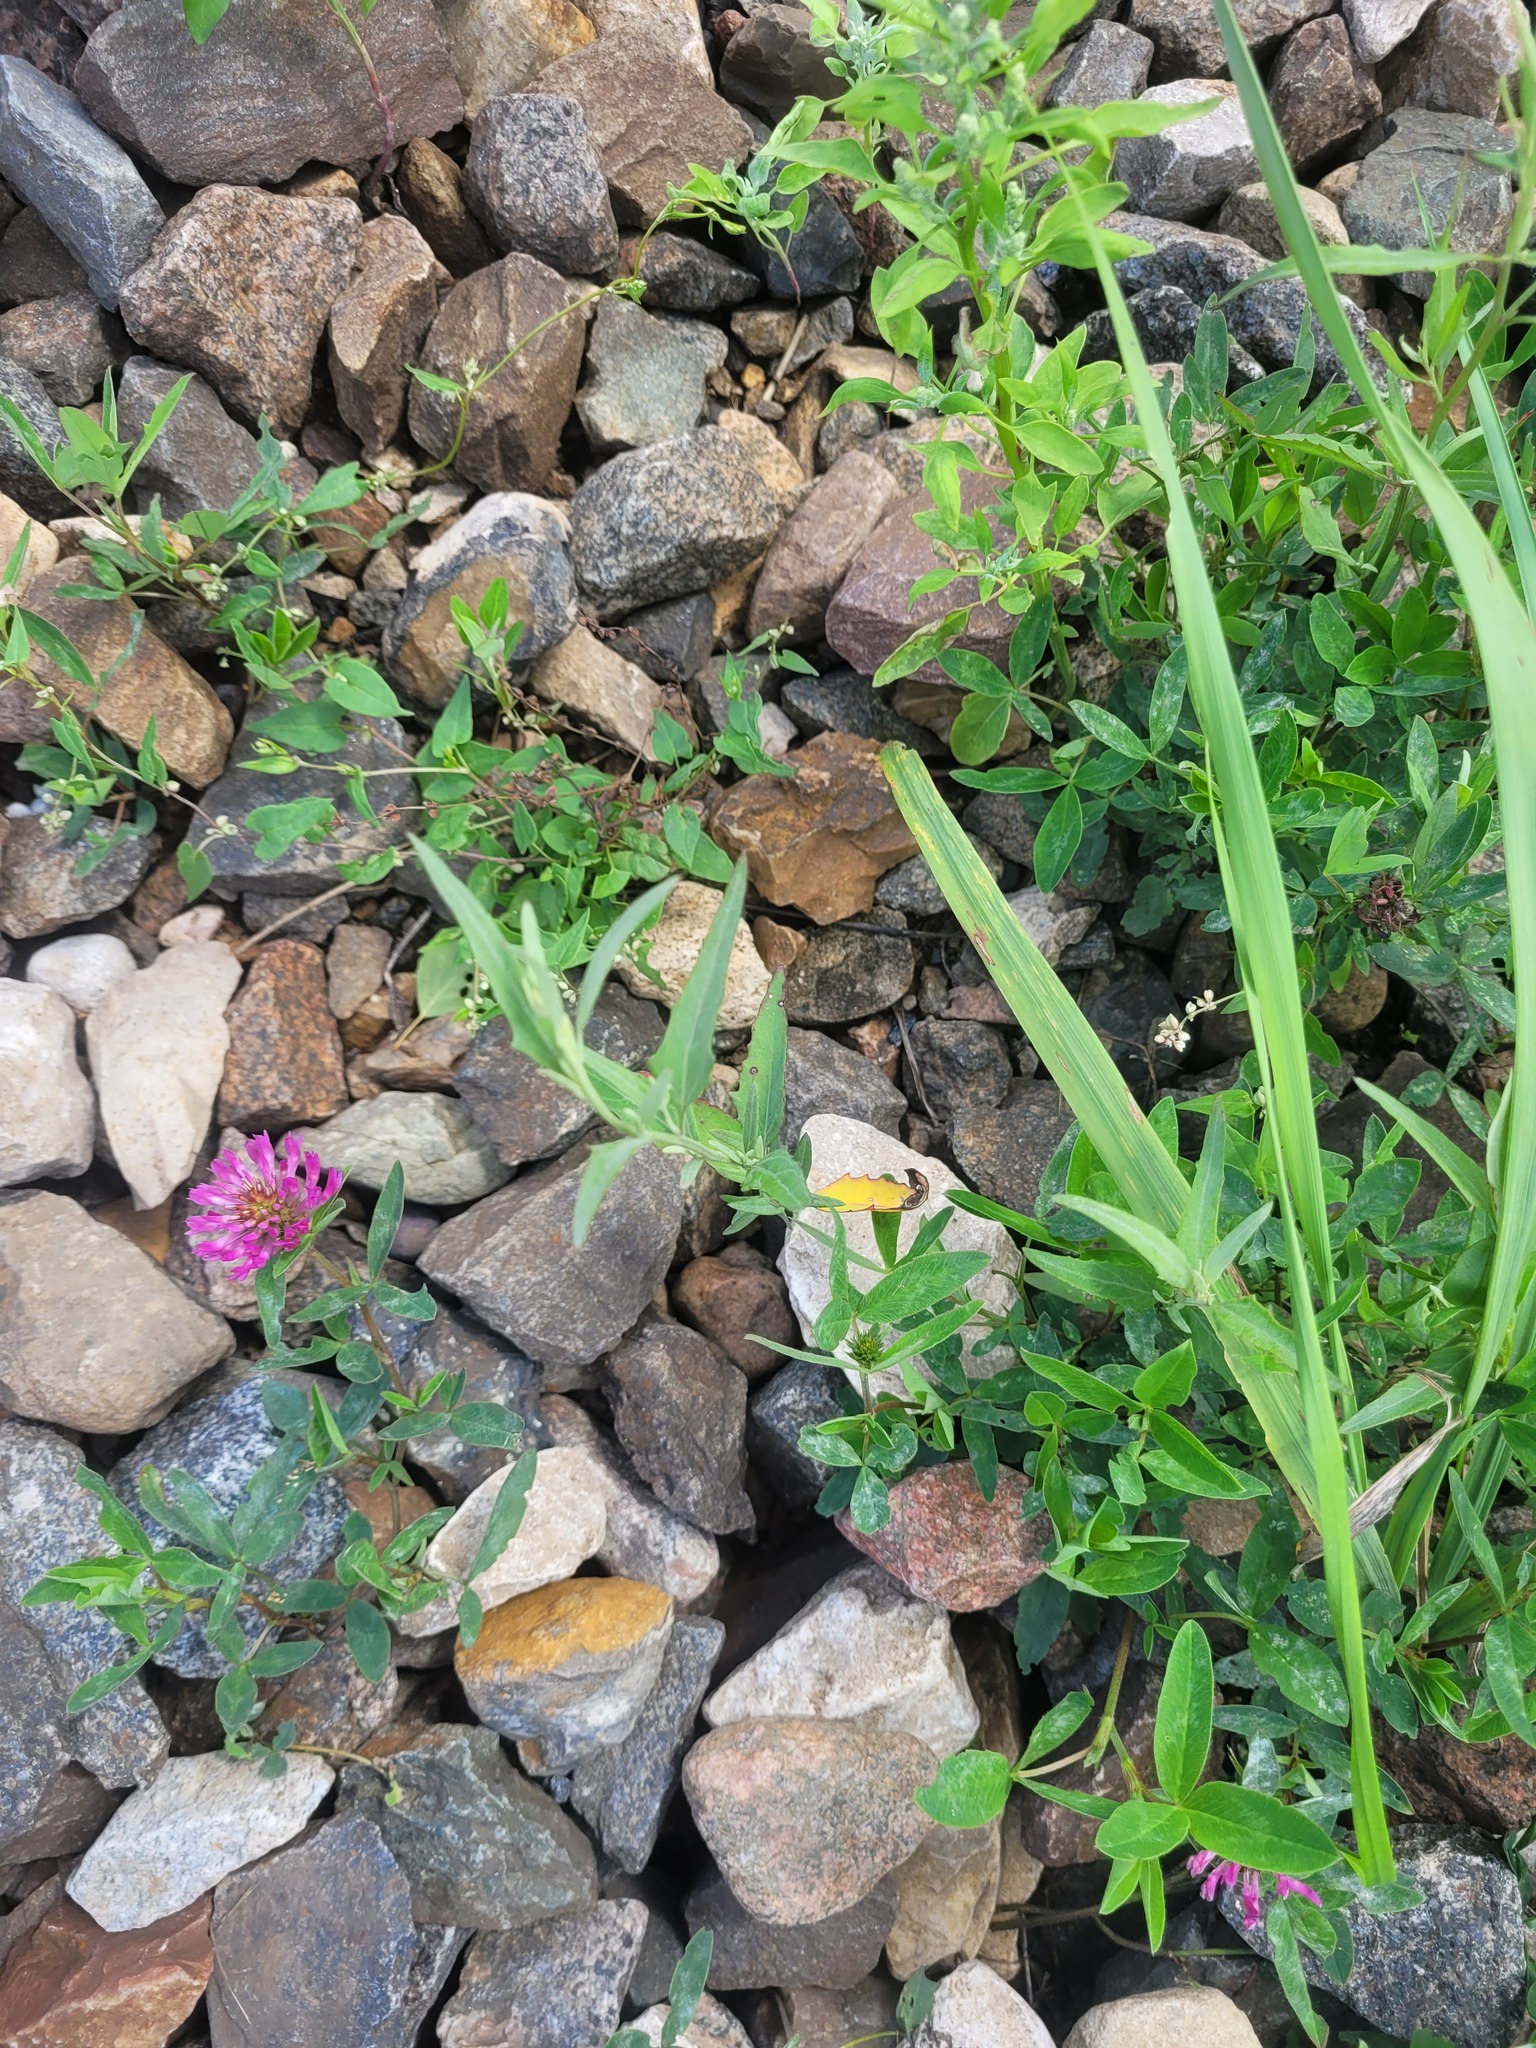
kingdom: Plantae
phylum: Tracheophyta
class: Magnoliopsida
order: Caryophyllales
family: Amaranthaceae
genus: Atriplex
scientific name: Atriplex oblongifolia
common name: Oblongleaf orache
